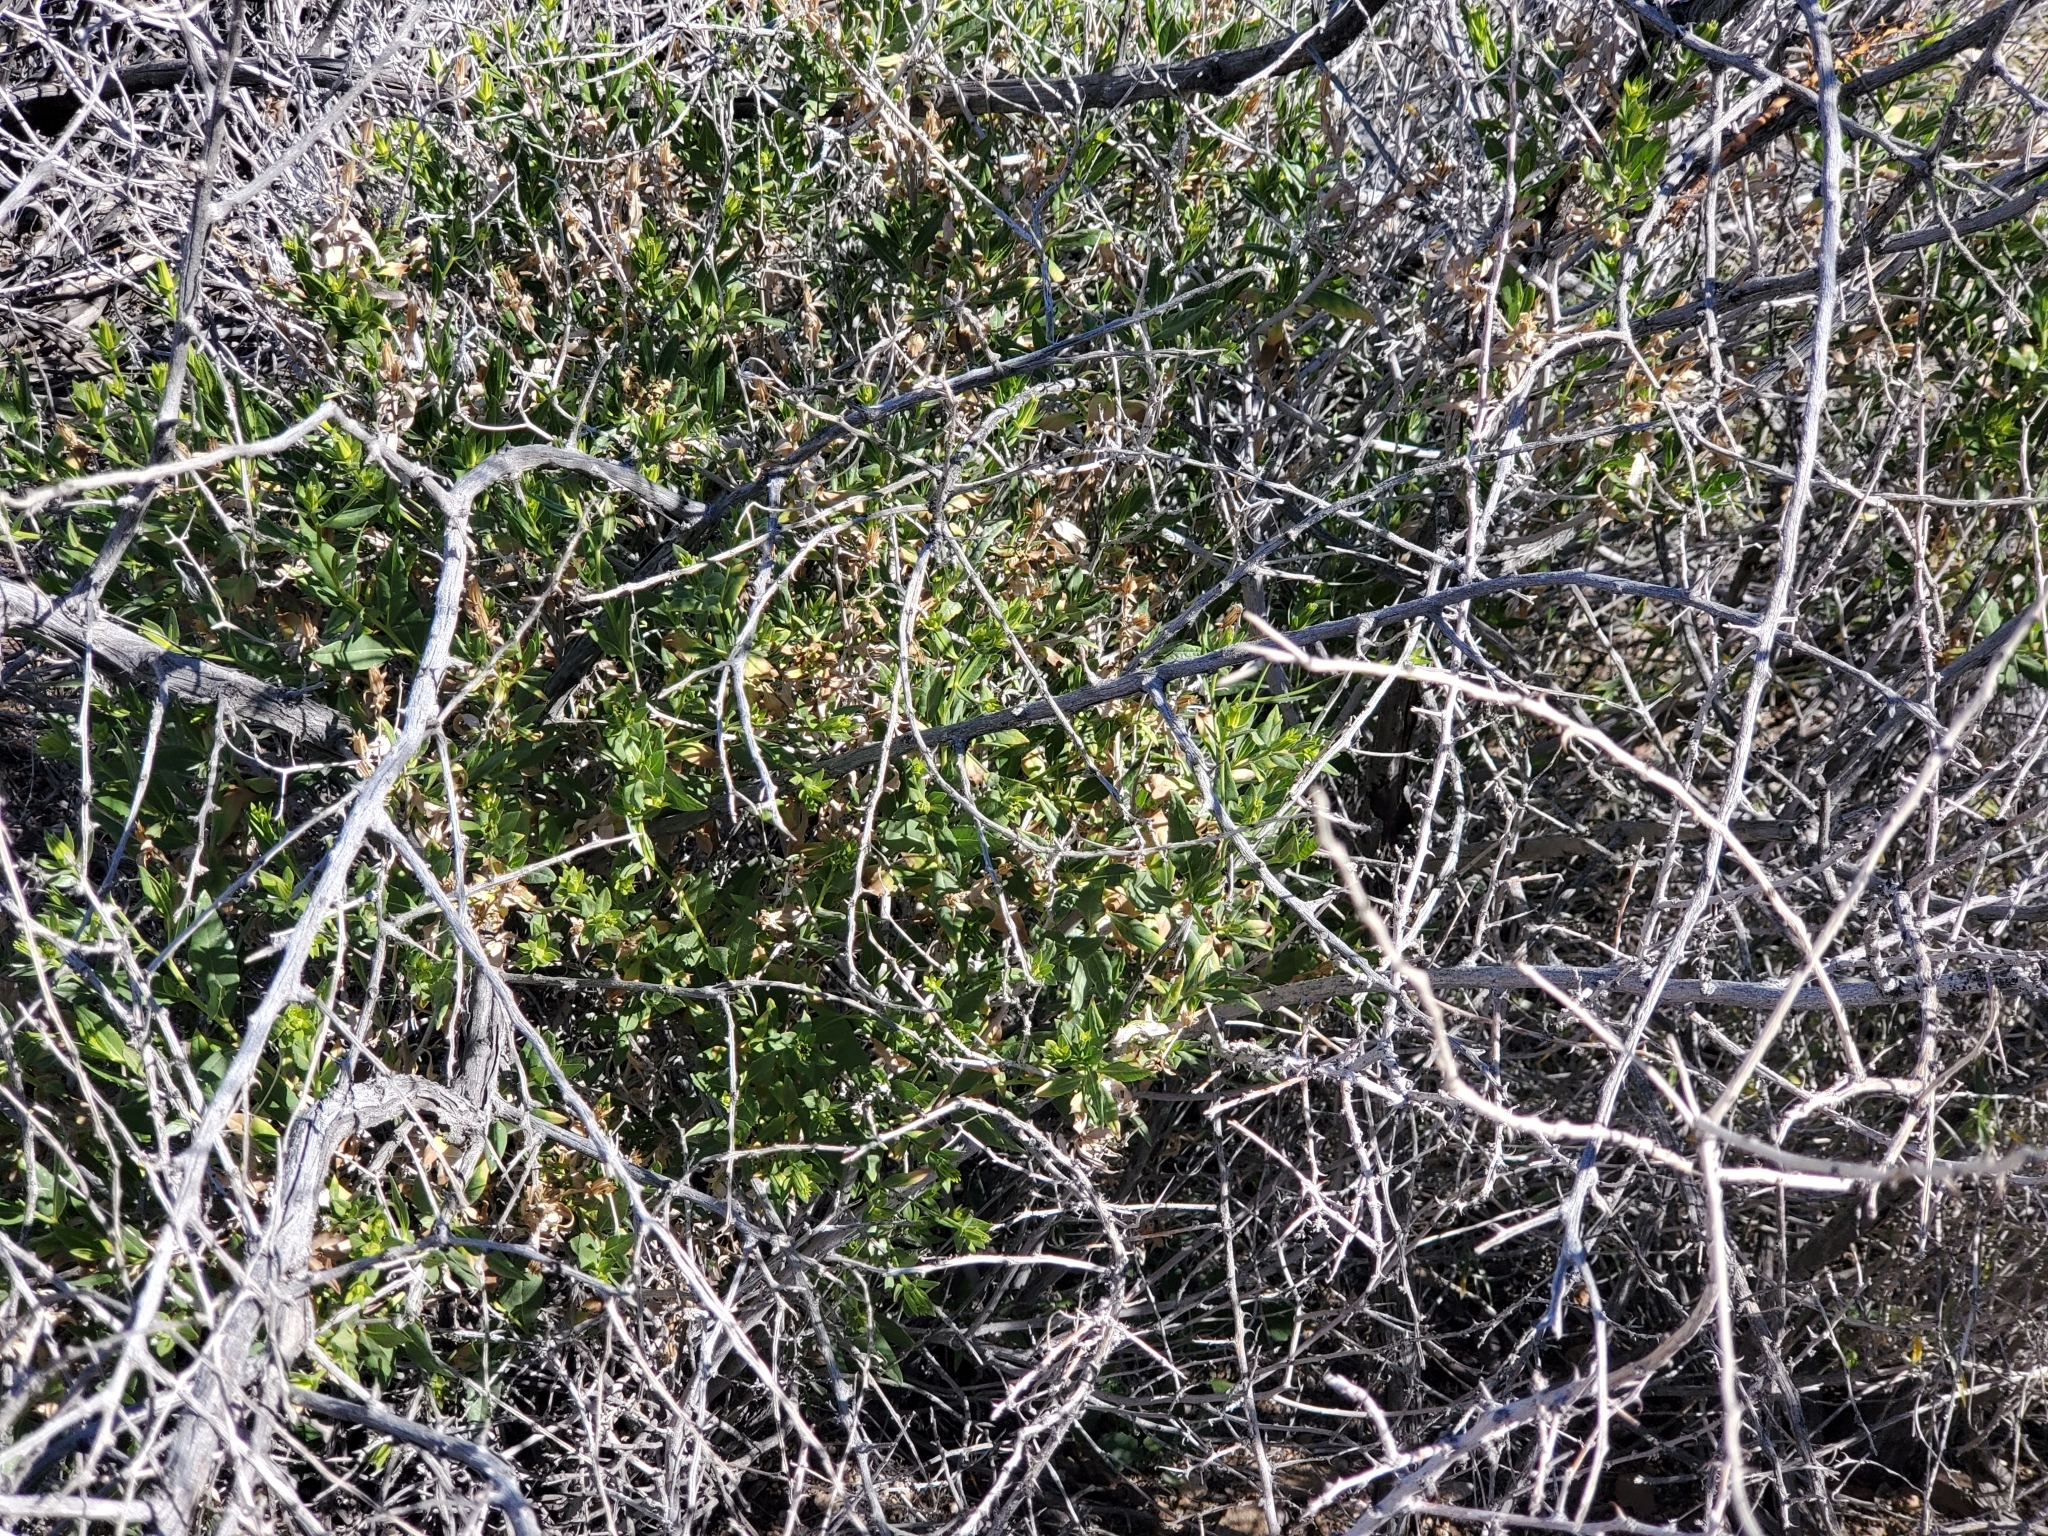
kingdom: Plantae
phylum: Tracheophyta
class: Magnoliopsida
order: Asterales
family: Asteraceae
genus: Trixis
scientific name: Trixis californica
